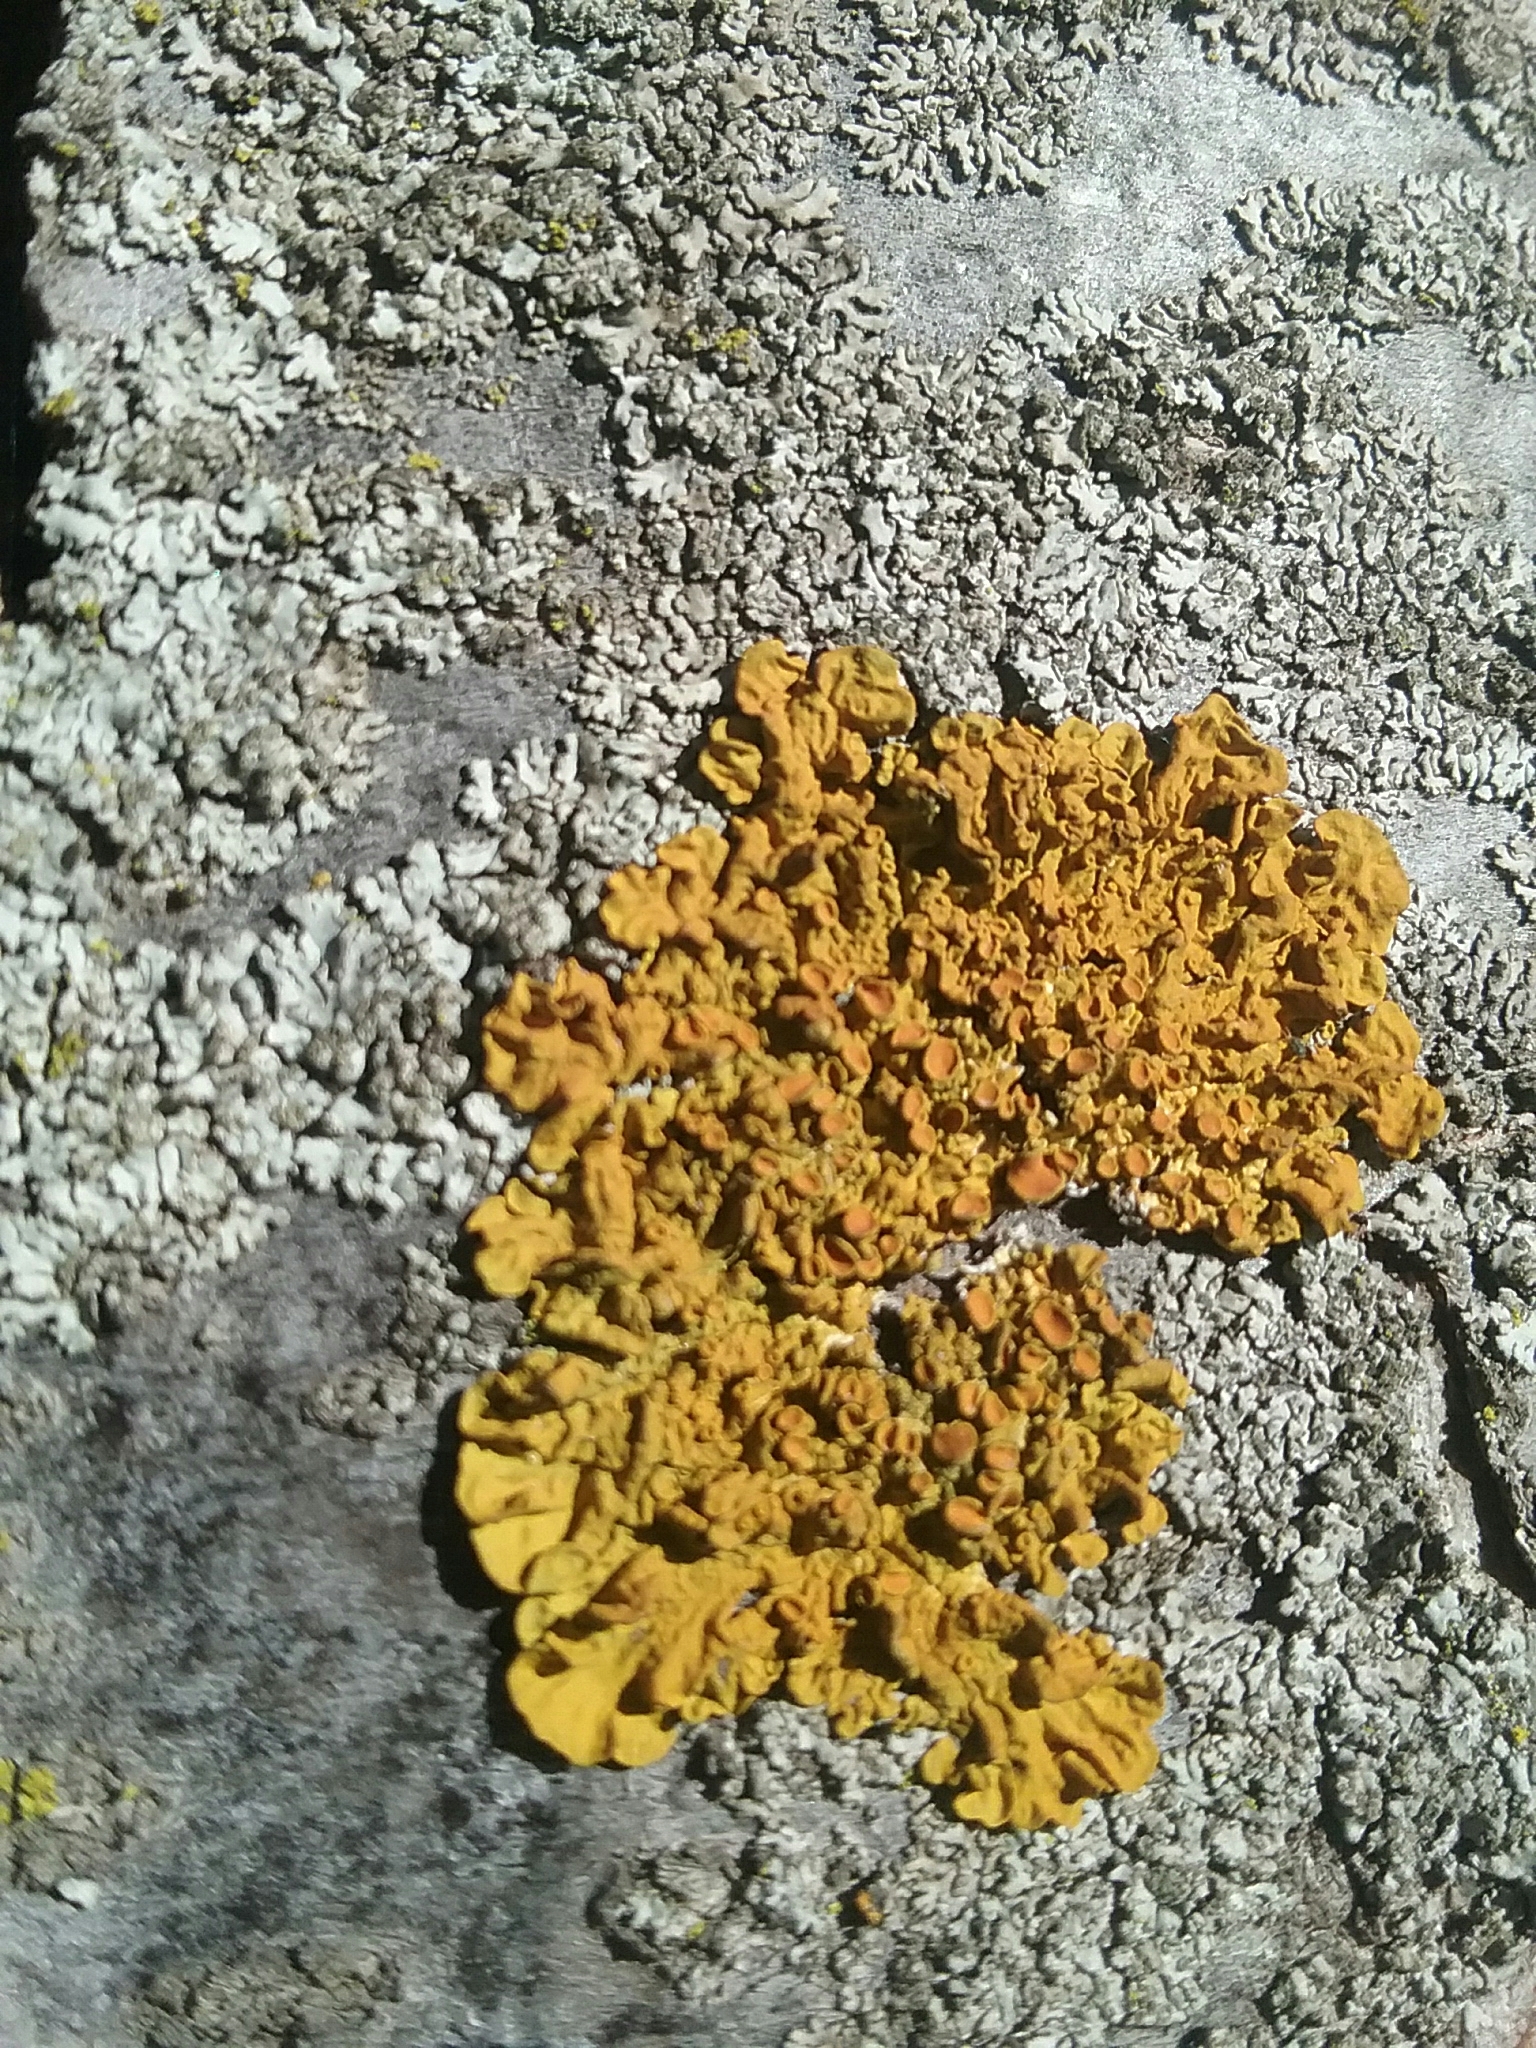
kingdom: Fungi
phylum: Ascomycota
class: Lecanoromycetes
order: Teloschistales
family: Teloschistaceae
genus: Xanthoria
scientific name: Xanthoria parietina
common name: Common orange lichen
